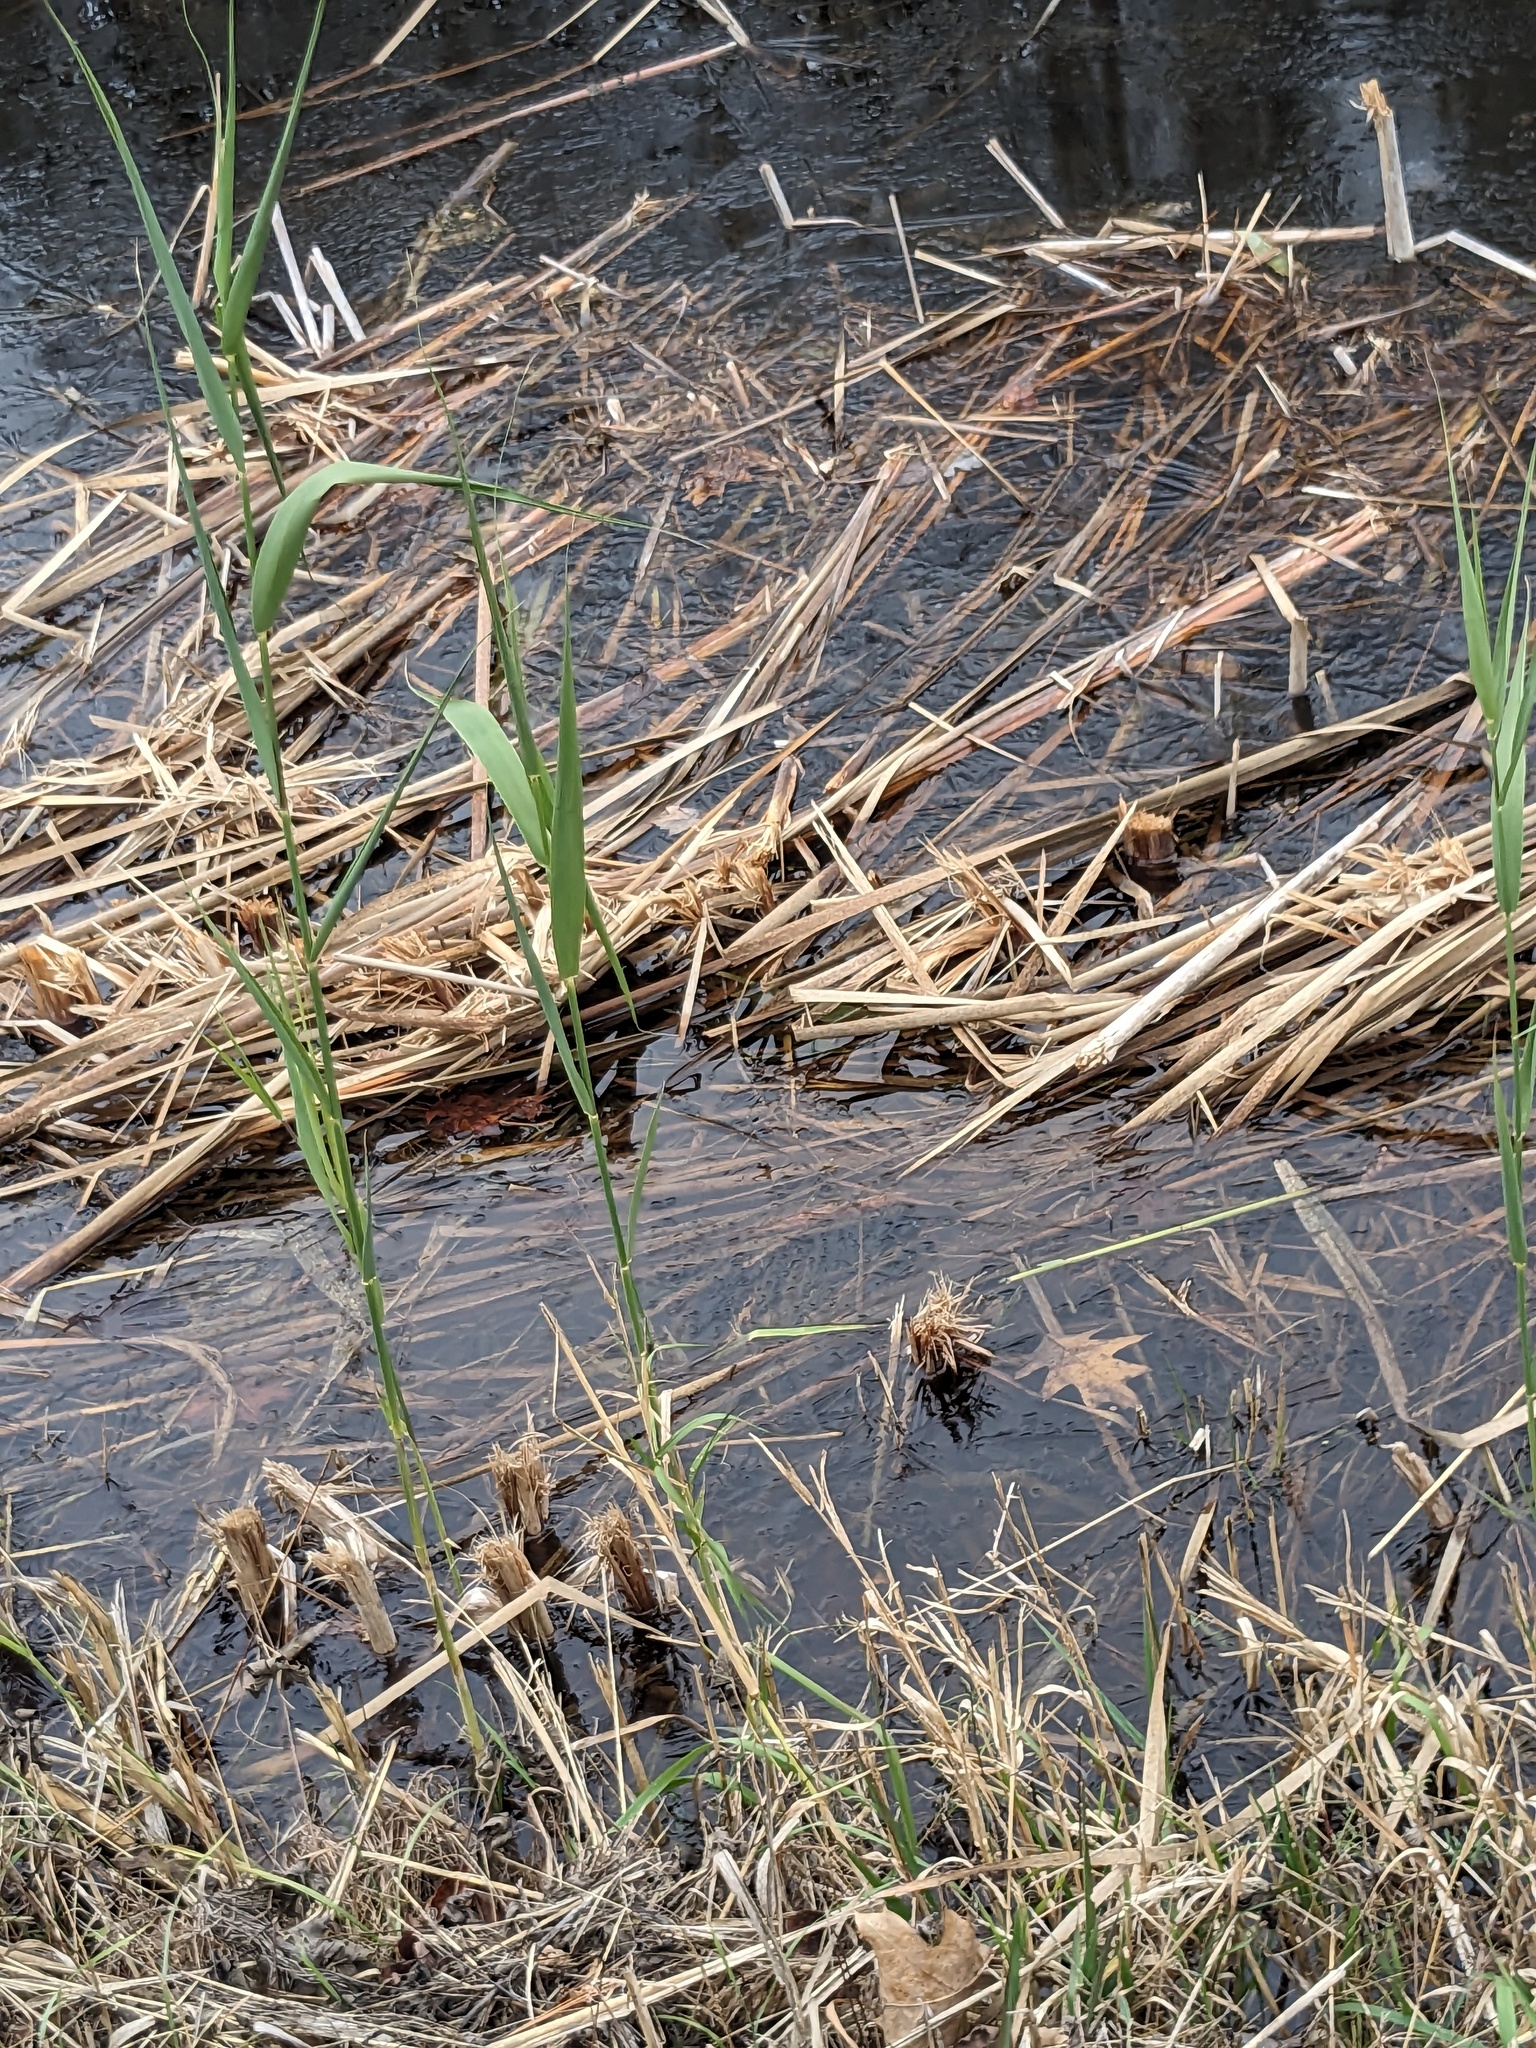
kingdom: Plantae
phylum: Tracheophyta
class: Liliopsida
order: Poales
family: Poaceae
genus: Phragmites
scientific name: Phragmites australis
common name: Common reed
